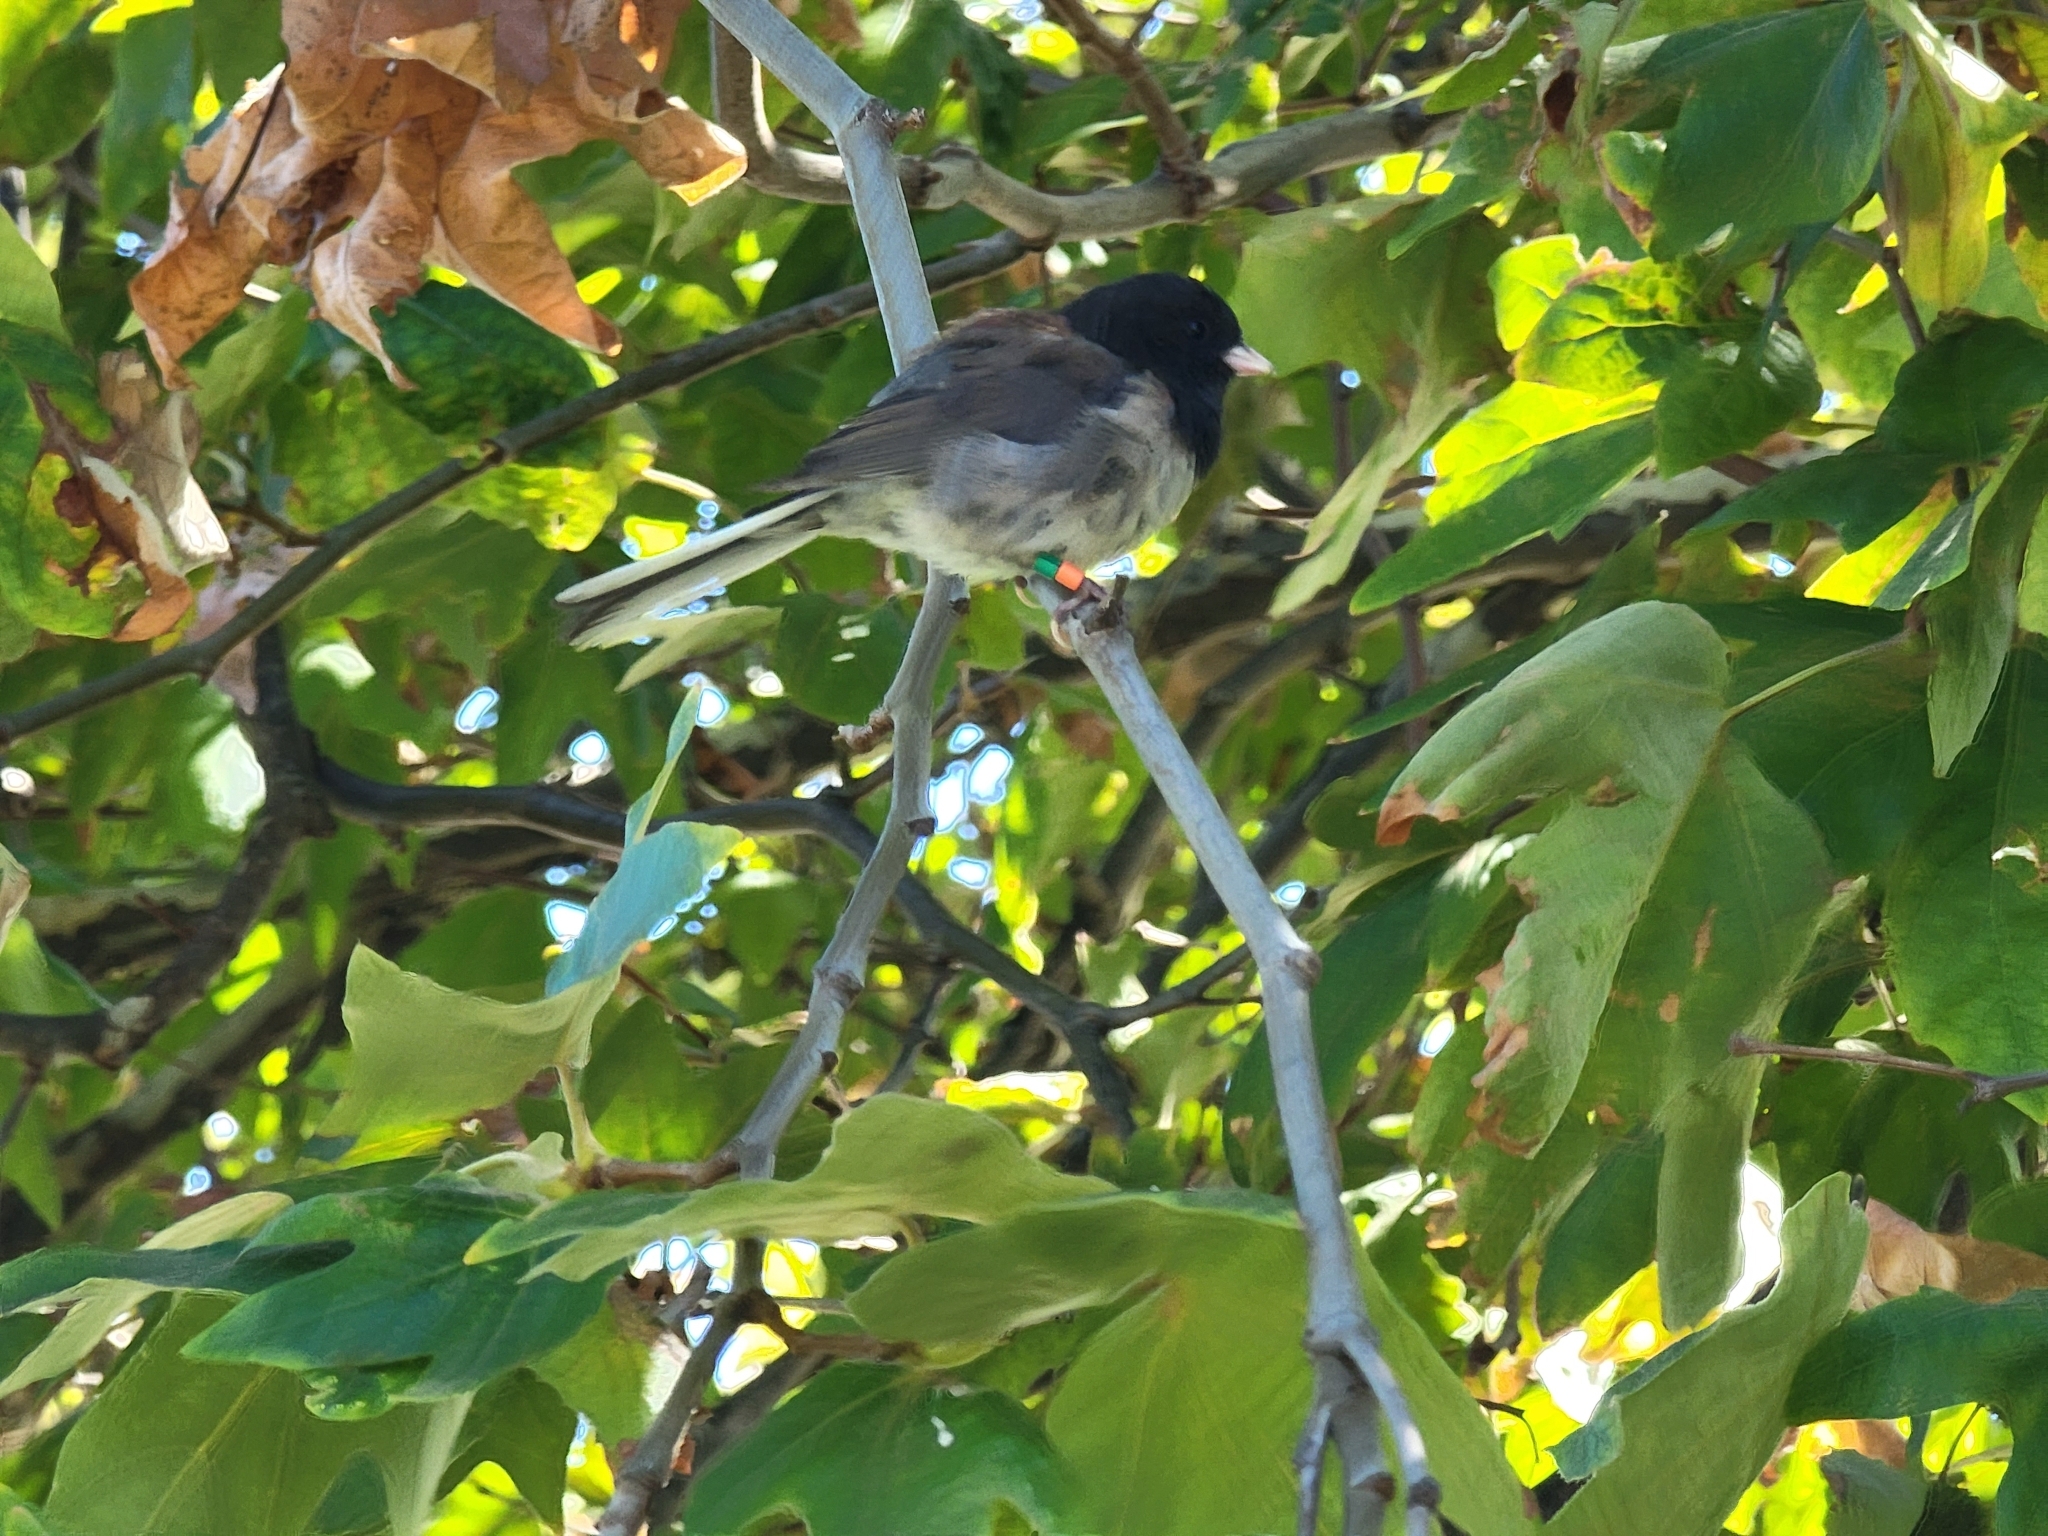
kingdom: Animalia
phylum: Chordata
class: Aves
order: Passeriformes
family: Passerellidae
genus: Junco
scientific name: Junco hyemalis
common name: Dark-eyed junco
